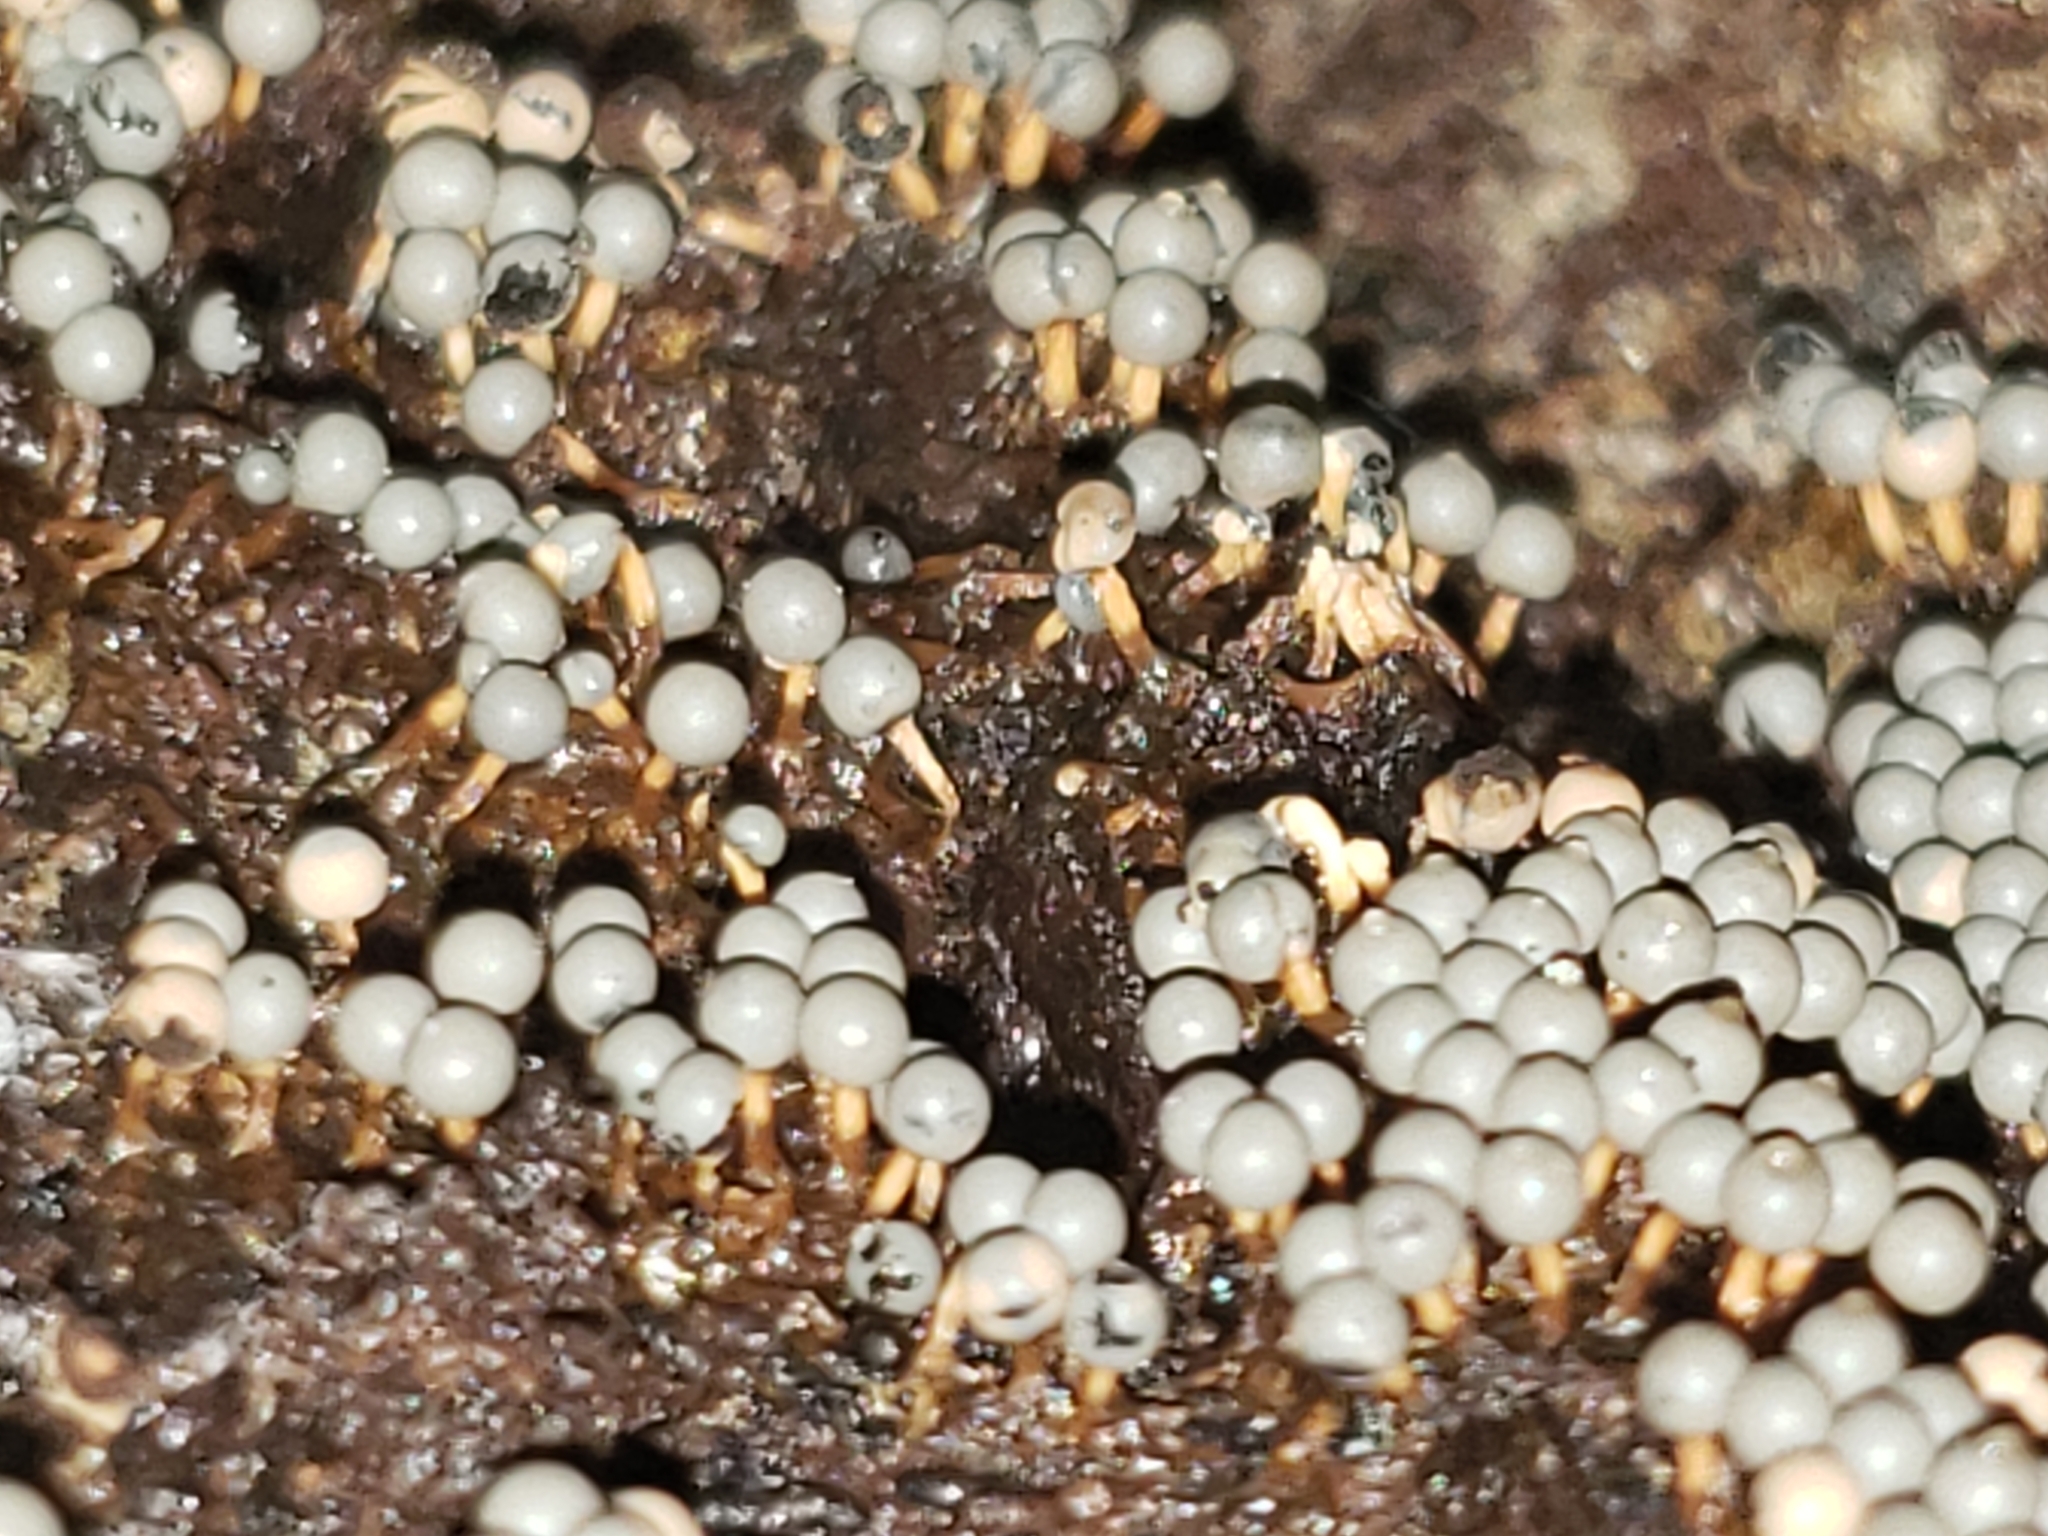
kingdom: Protozoa
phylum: Mycetozoa
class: Myxomycetes
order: Physarales
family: Didymiaceae
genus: Diderma
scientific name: Diderma floriforme
